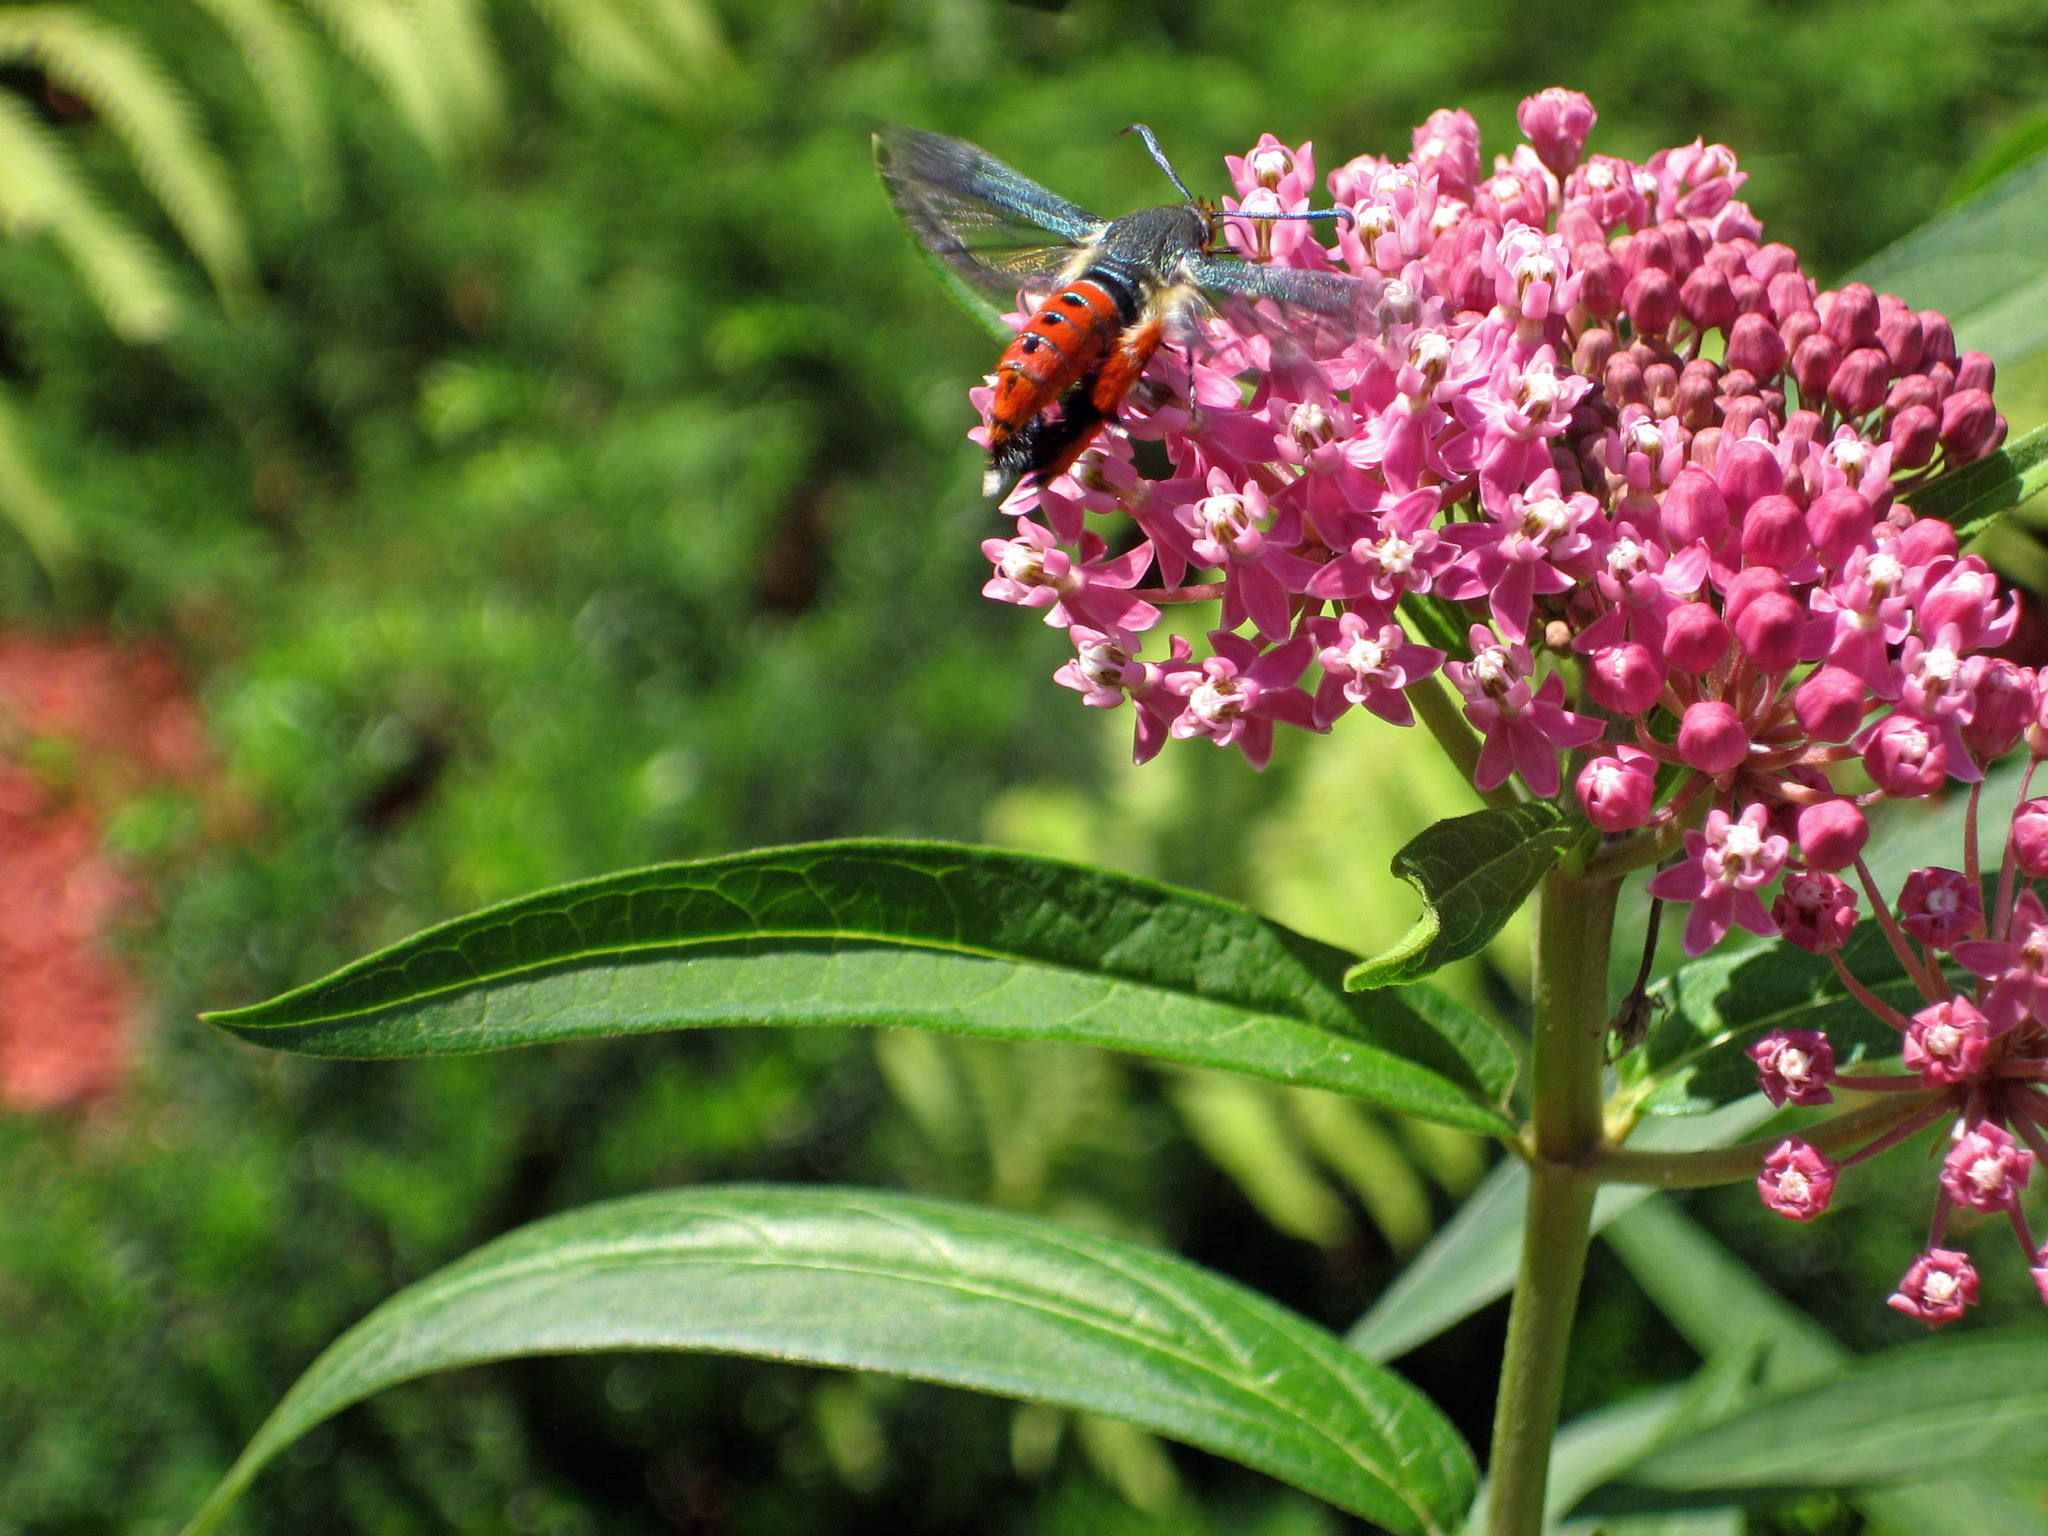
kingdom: Animalia
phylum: Arthropoda
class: Insecta
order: Lepidoptera
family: Sesiidae
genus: Eichlinia
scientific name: Eichlinia cucurbitae
